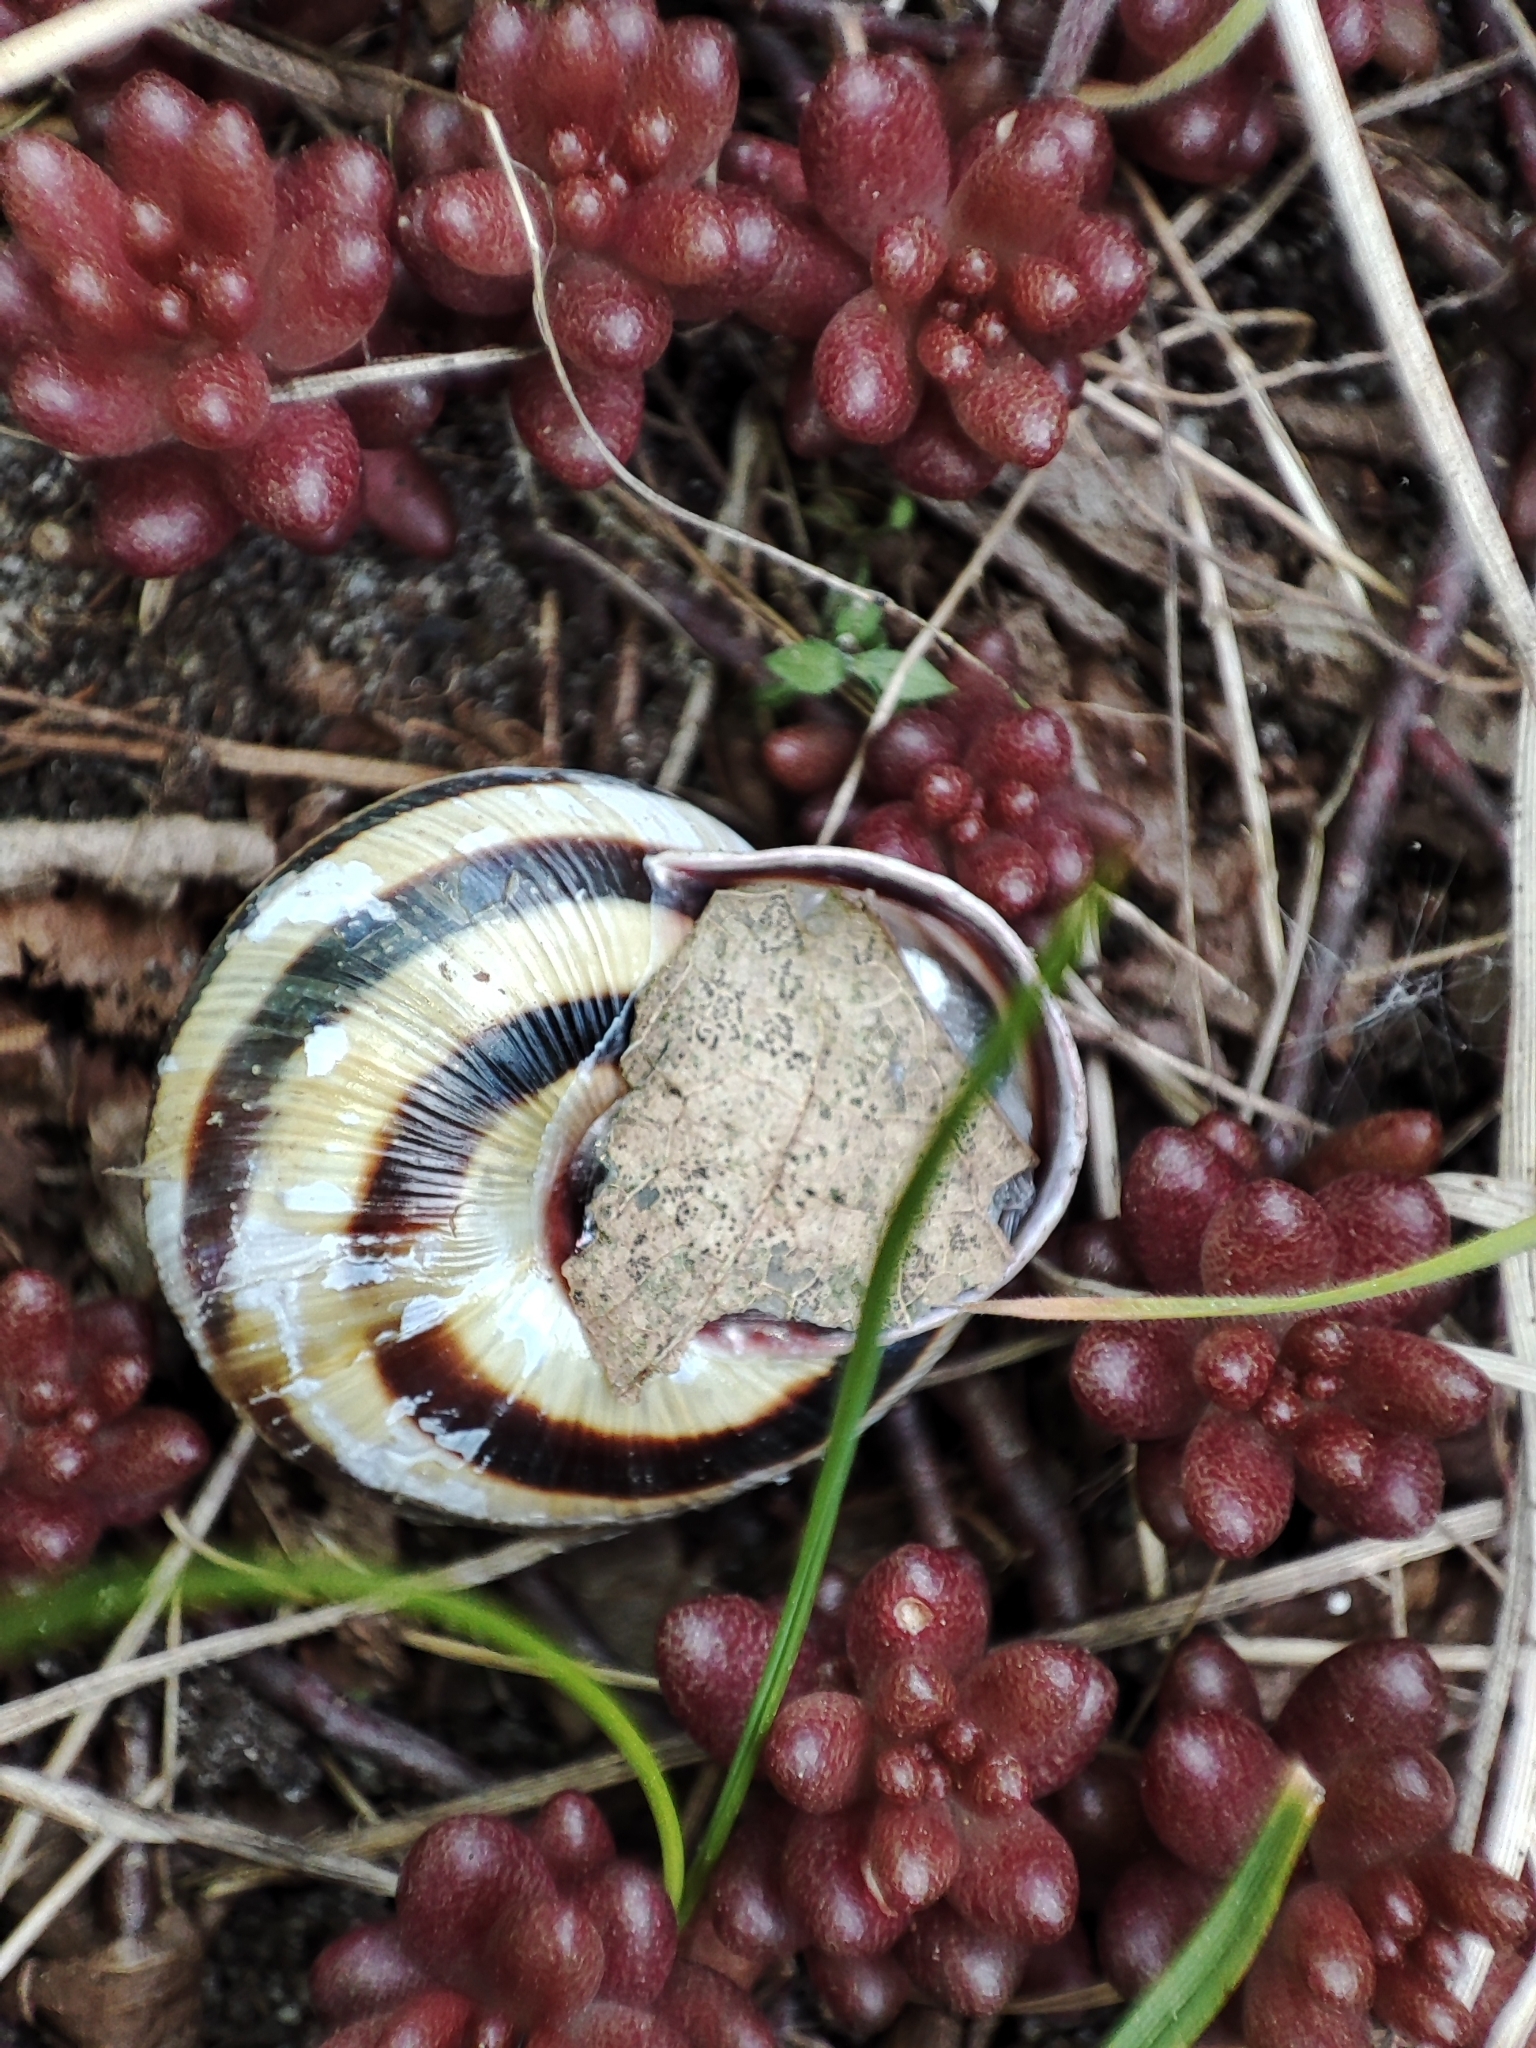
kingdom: Animalia
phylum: Mollusca
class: Gastropoda
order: Stylommatophora
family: Helicidae
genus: Caucasotachea
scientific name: Caucasotachea vindobonensis
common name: European helicid land snail
